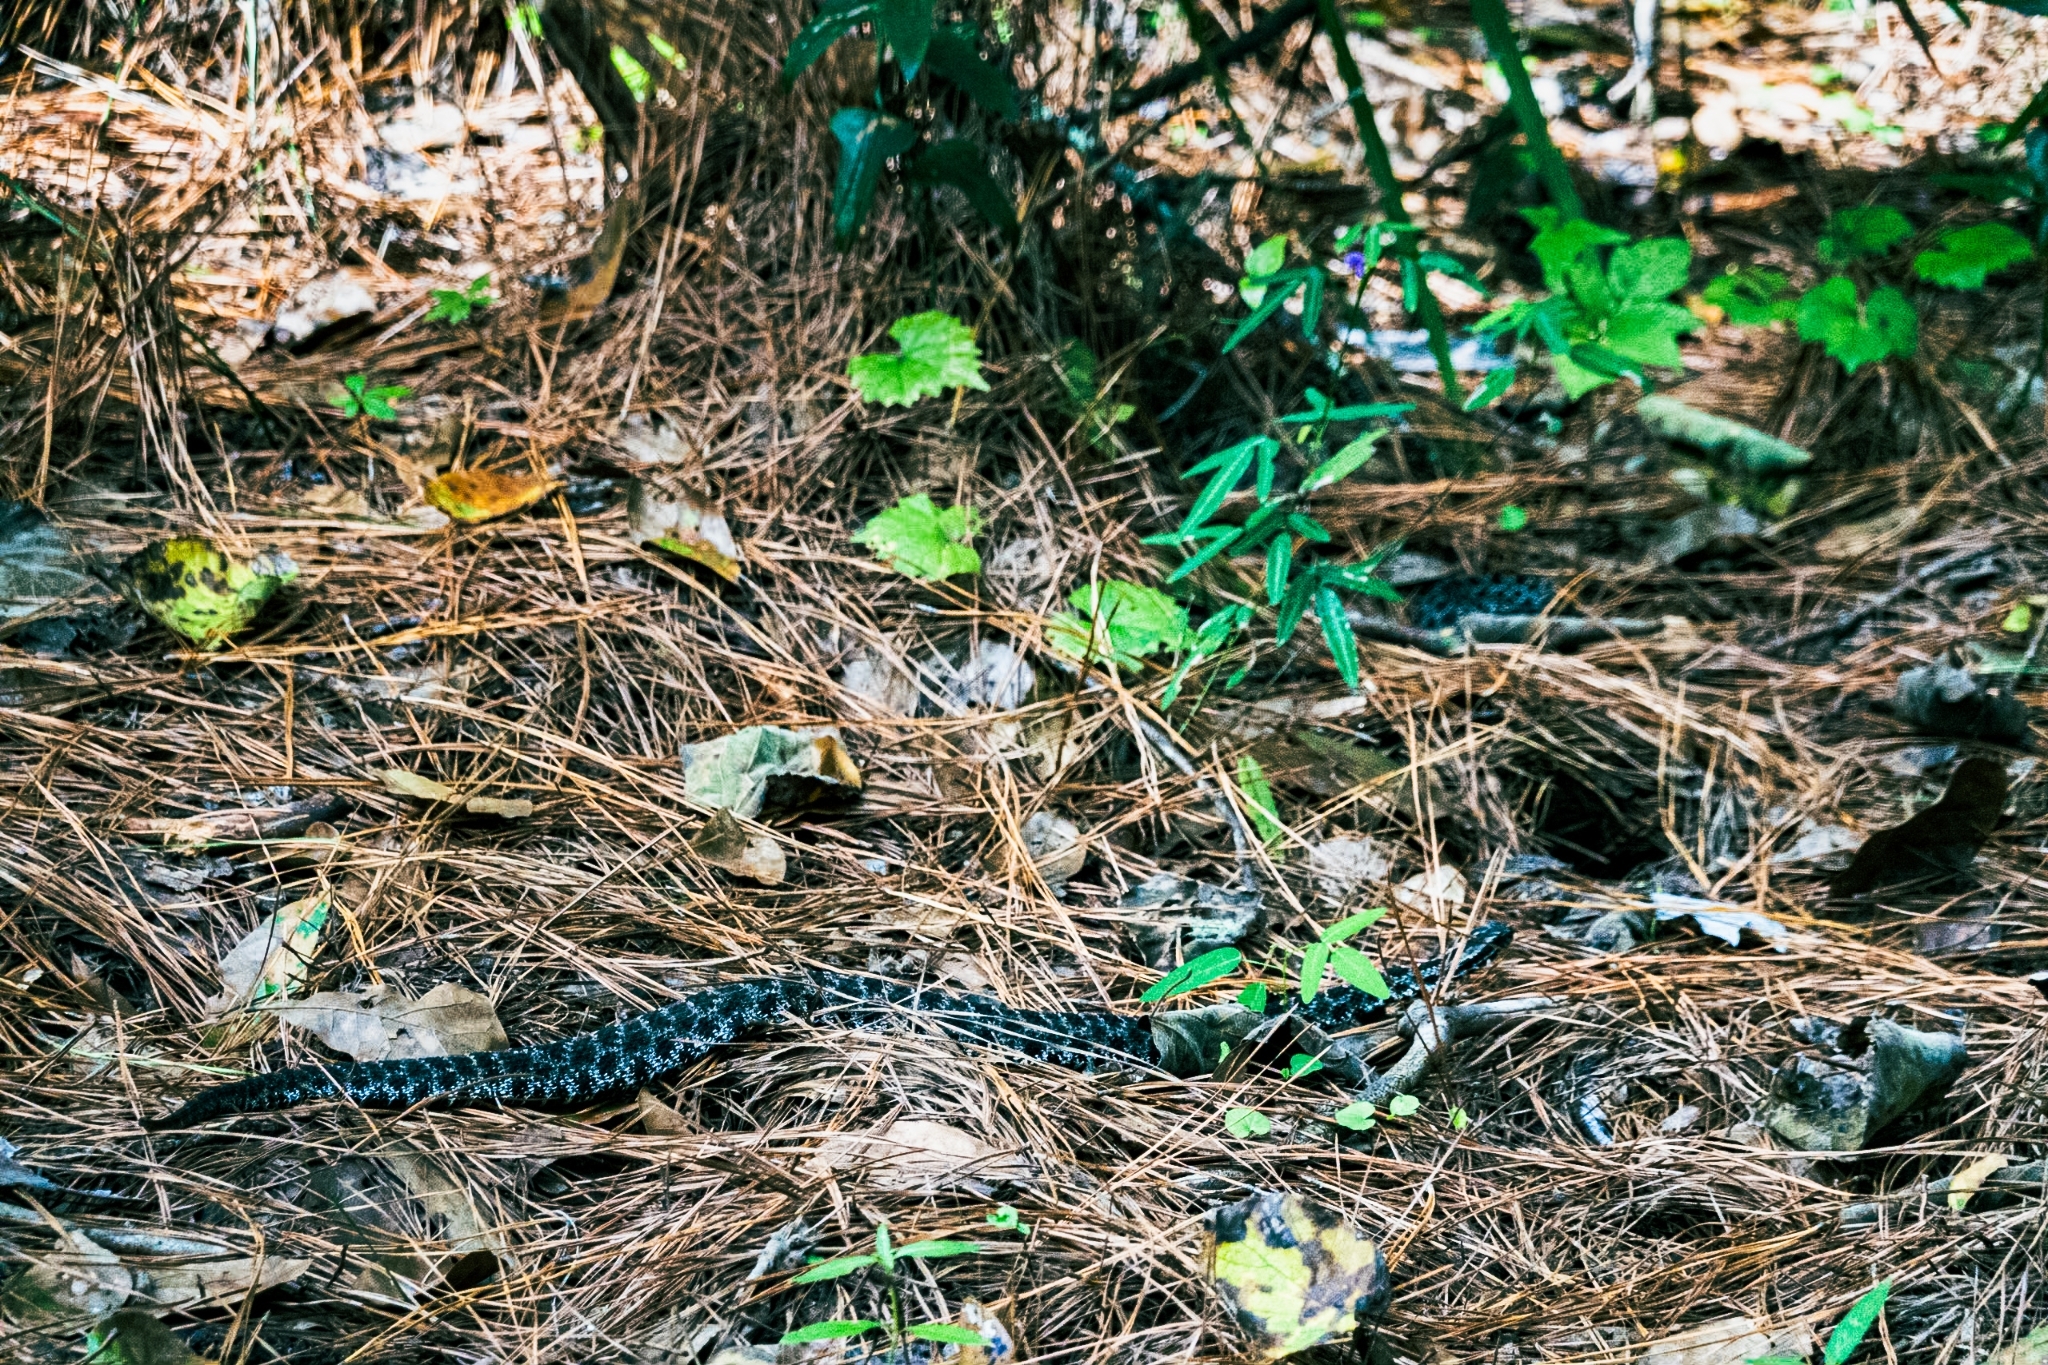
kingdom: Animalia
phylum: Chordata
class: Squamata
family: Viperidae
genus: Sistrurus
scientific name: Sistrurus miliarius
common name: Pygmy rattlesnake
